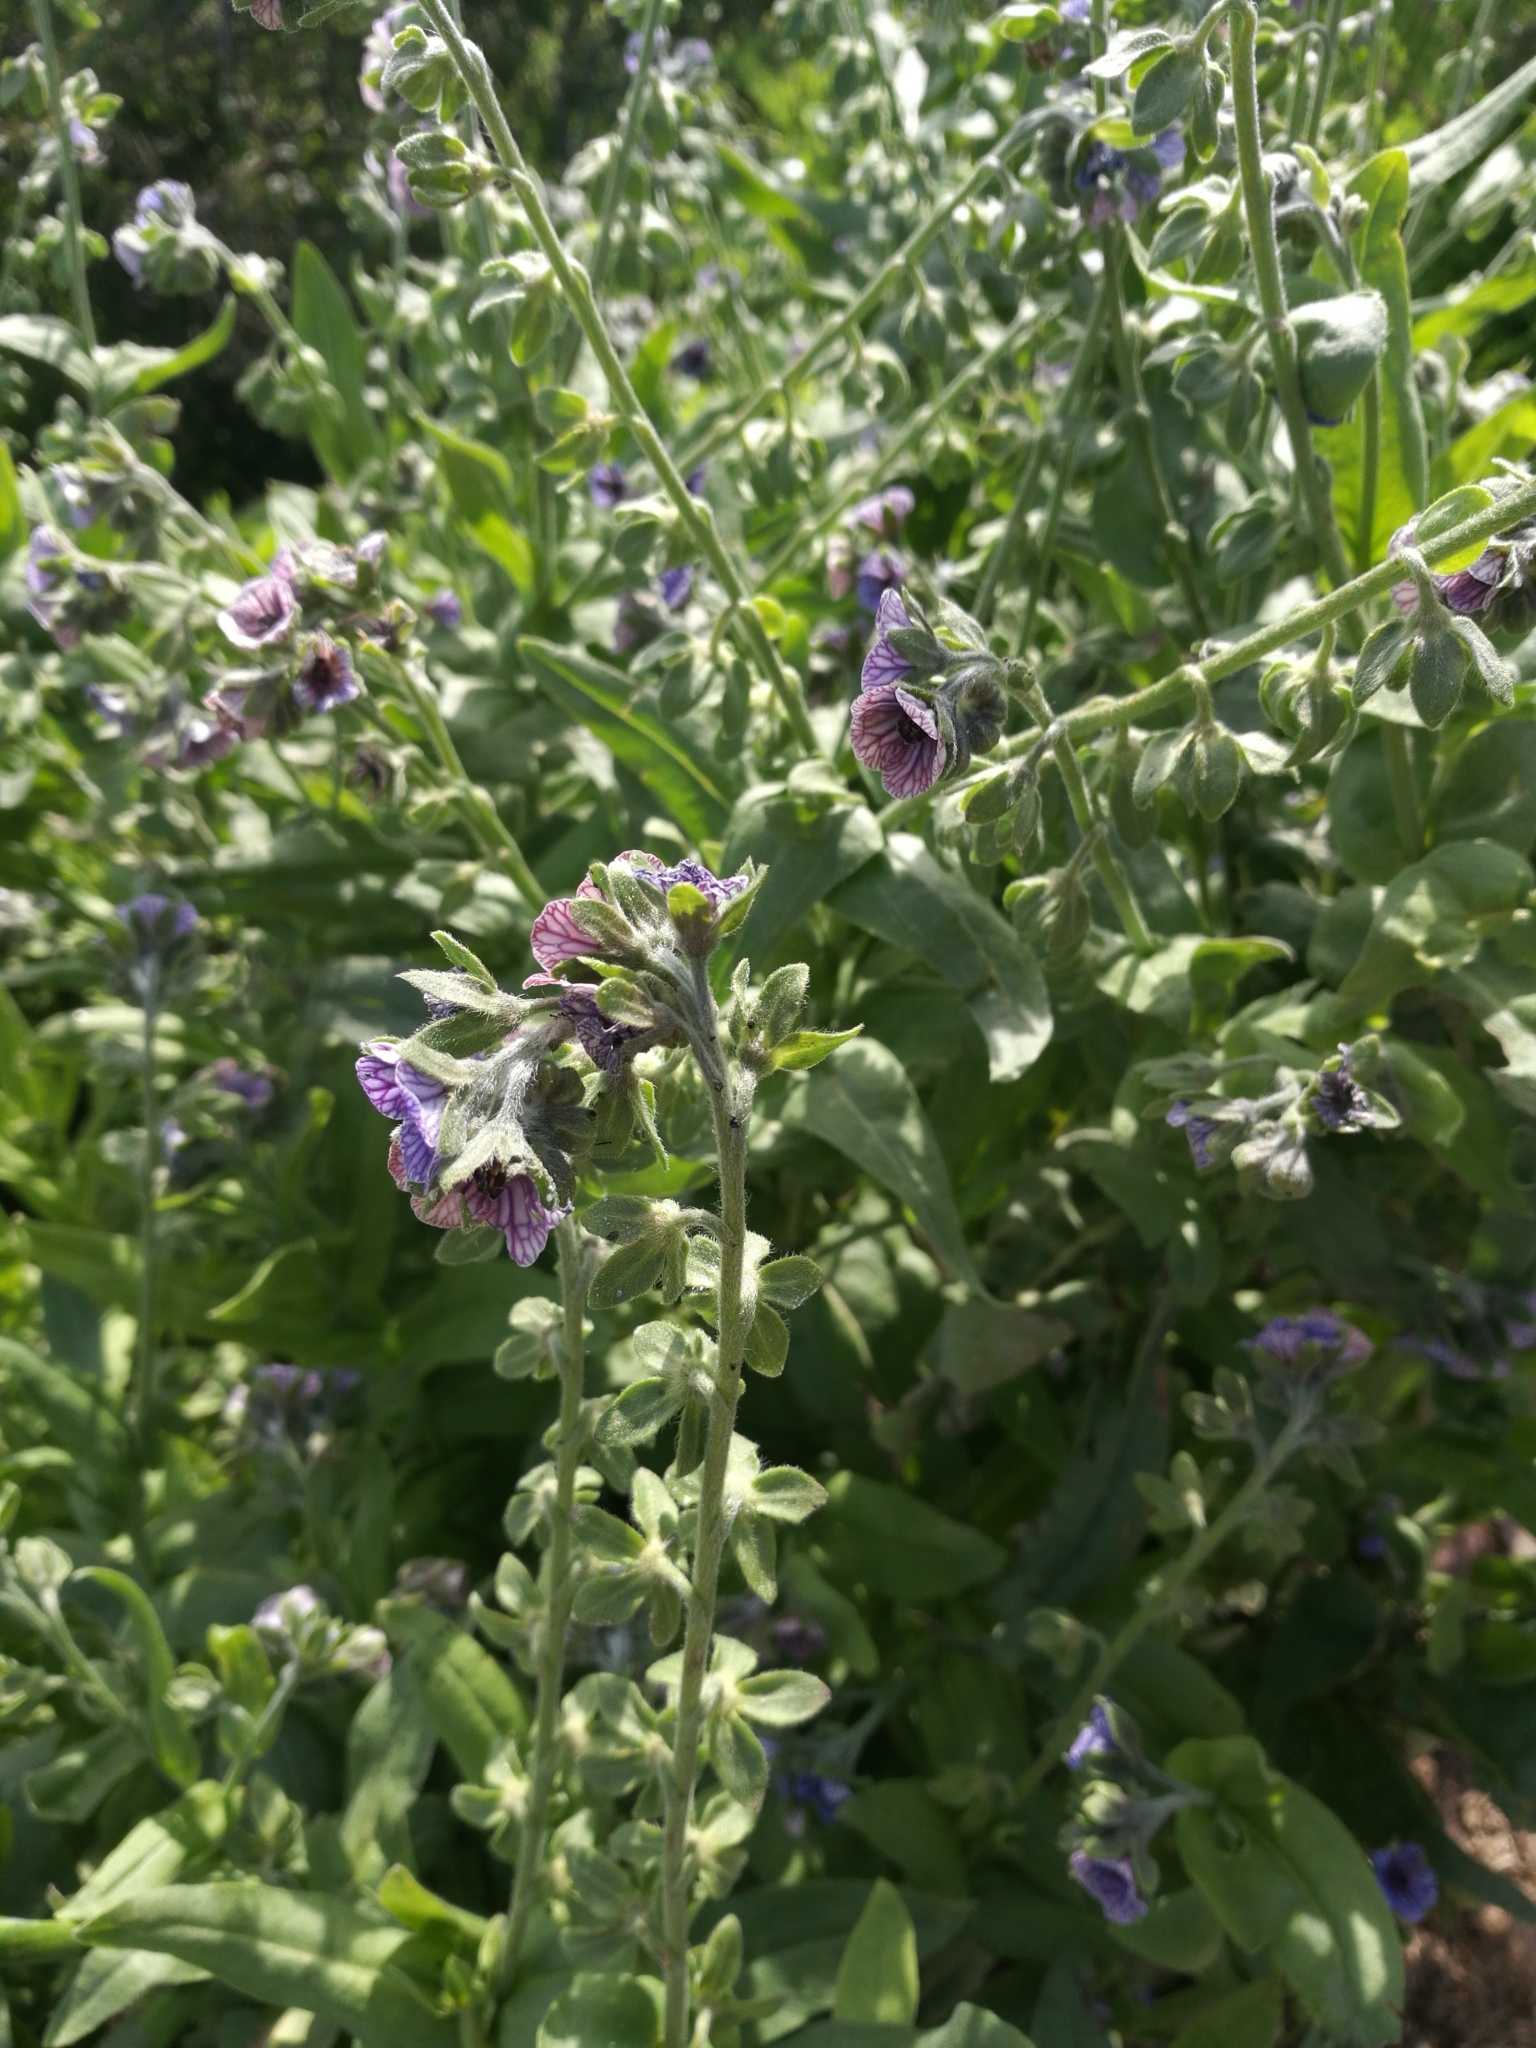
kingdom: Plantae
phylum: Tracheophyta
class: Magnoliopsida
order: Boraginales
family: Boraginaceae
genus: Cynoglossum
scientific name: Cynoglossum creticum
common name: Blue hound's tongue
